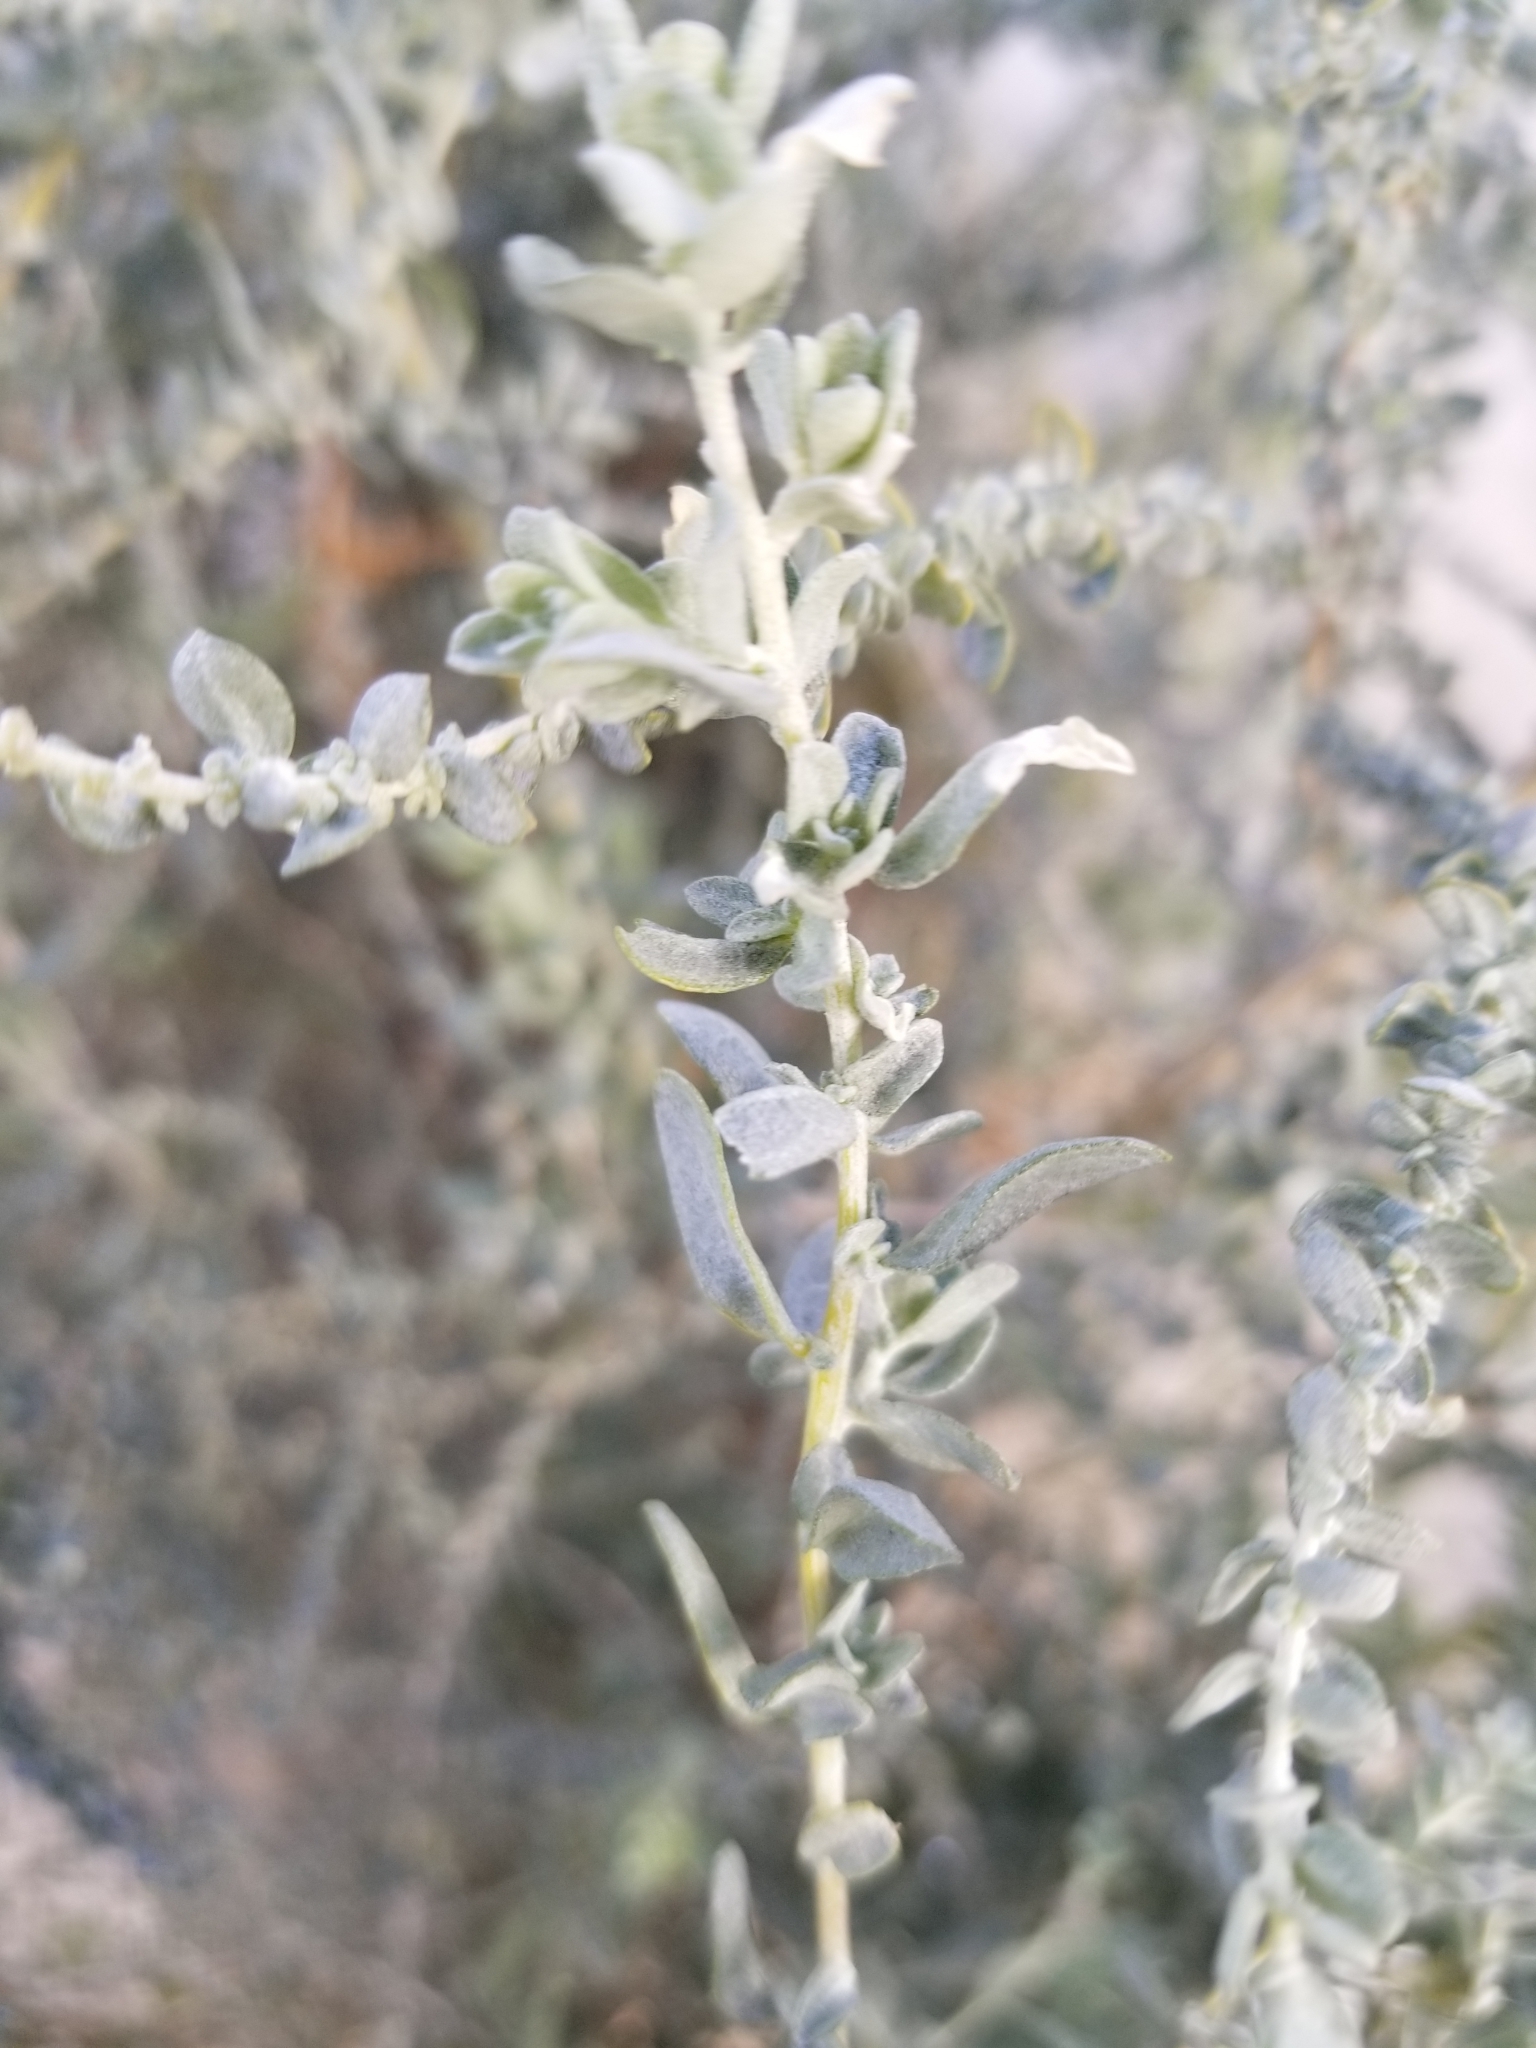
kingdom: Plantae
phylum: Tracheophyta
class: Magnoliopsida
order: Caryophyllales
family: Amaranthaceae
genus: Atriplex
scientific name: Atriplex polycarpa
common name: Desert saltbush
